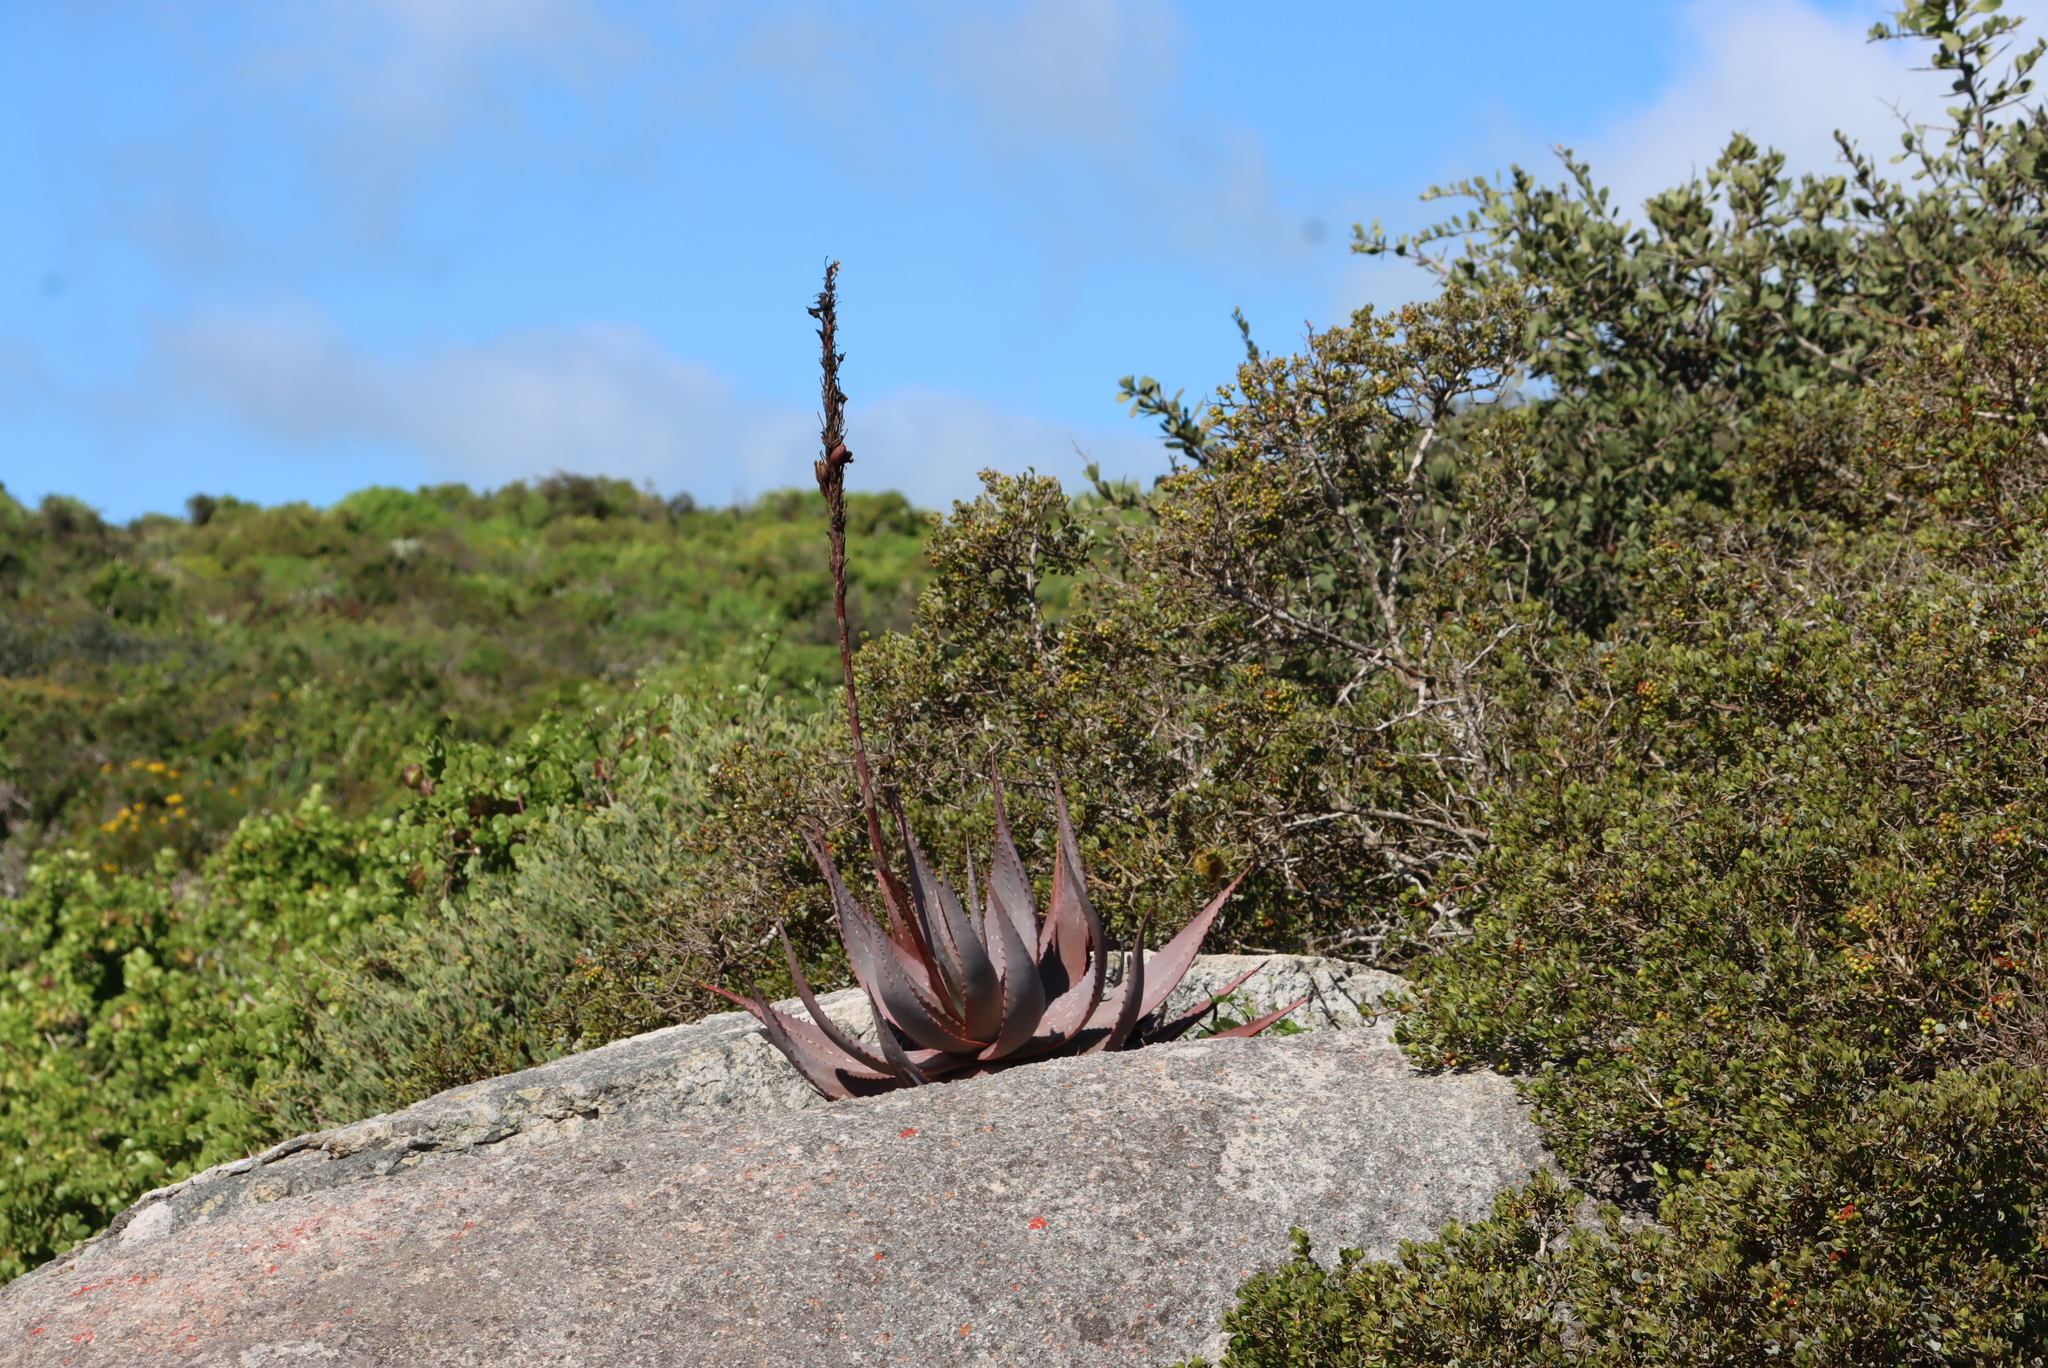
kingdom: Plantae
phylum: Tracheophyta
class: Liliopsida
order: Asparagales
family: Asphodelaceae
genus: Aloe
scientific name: Aloe microstigma
